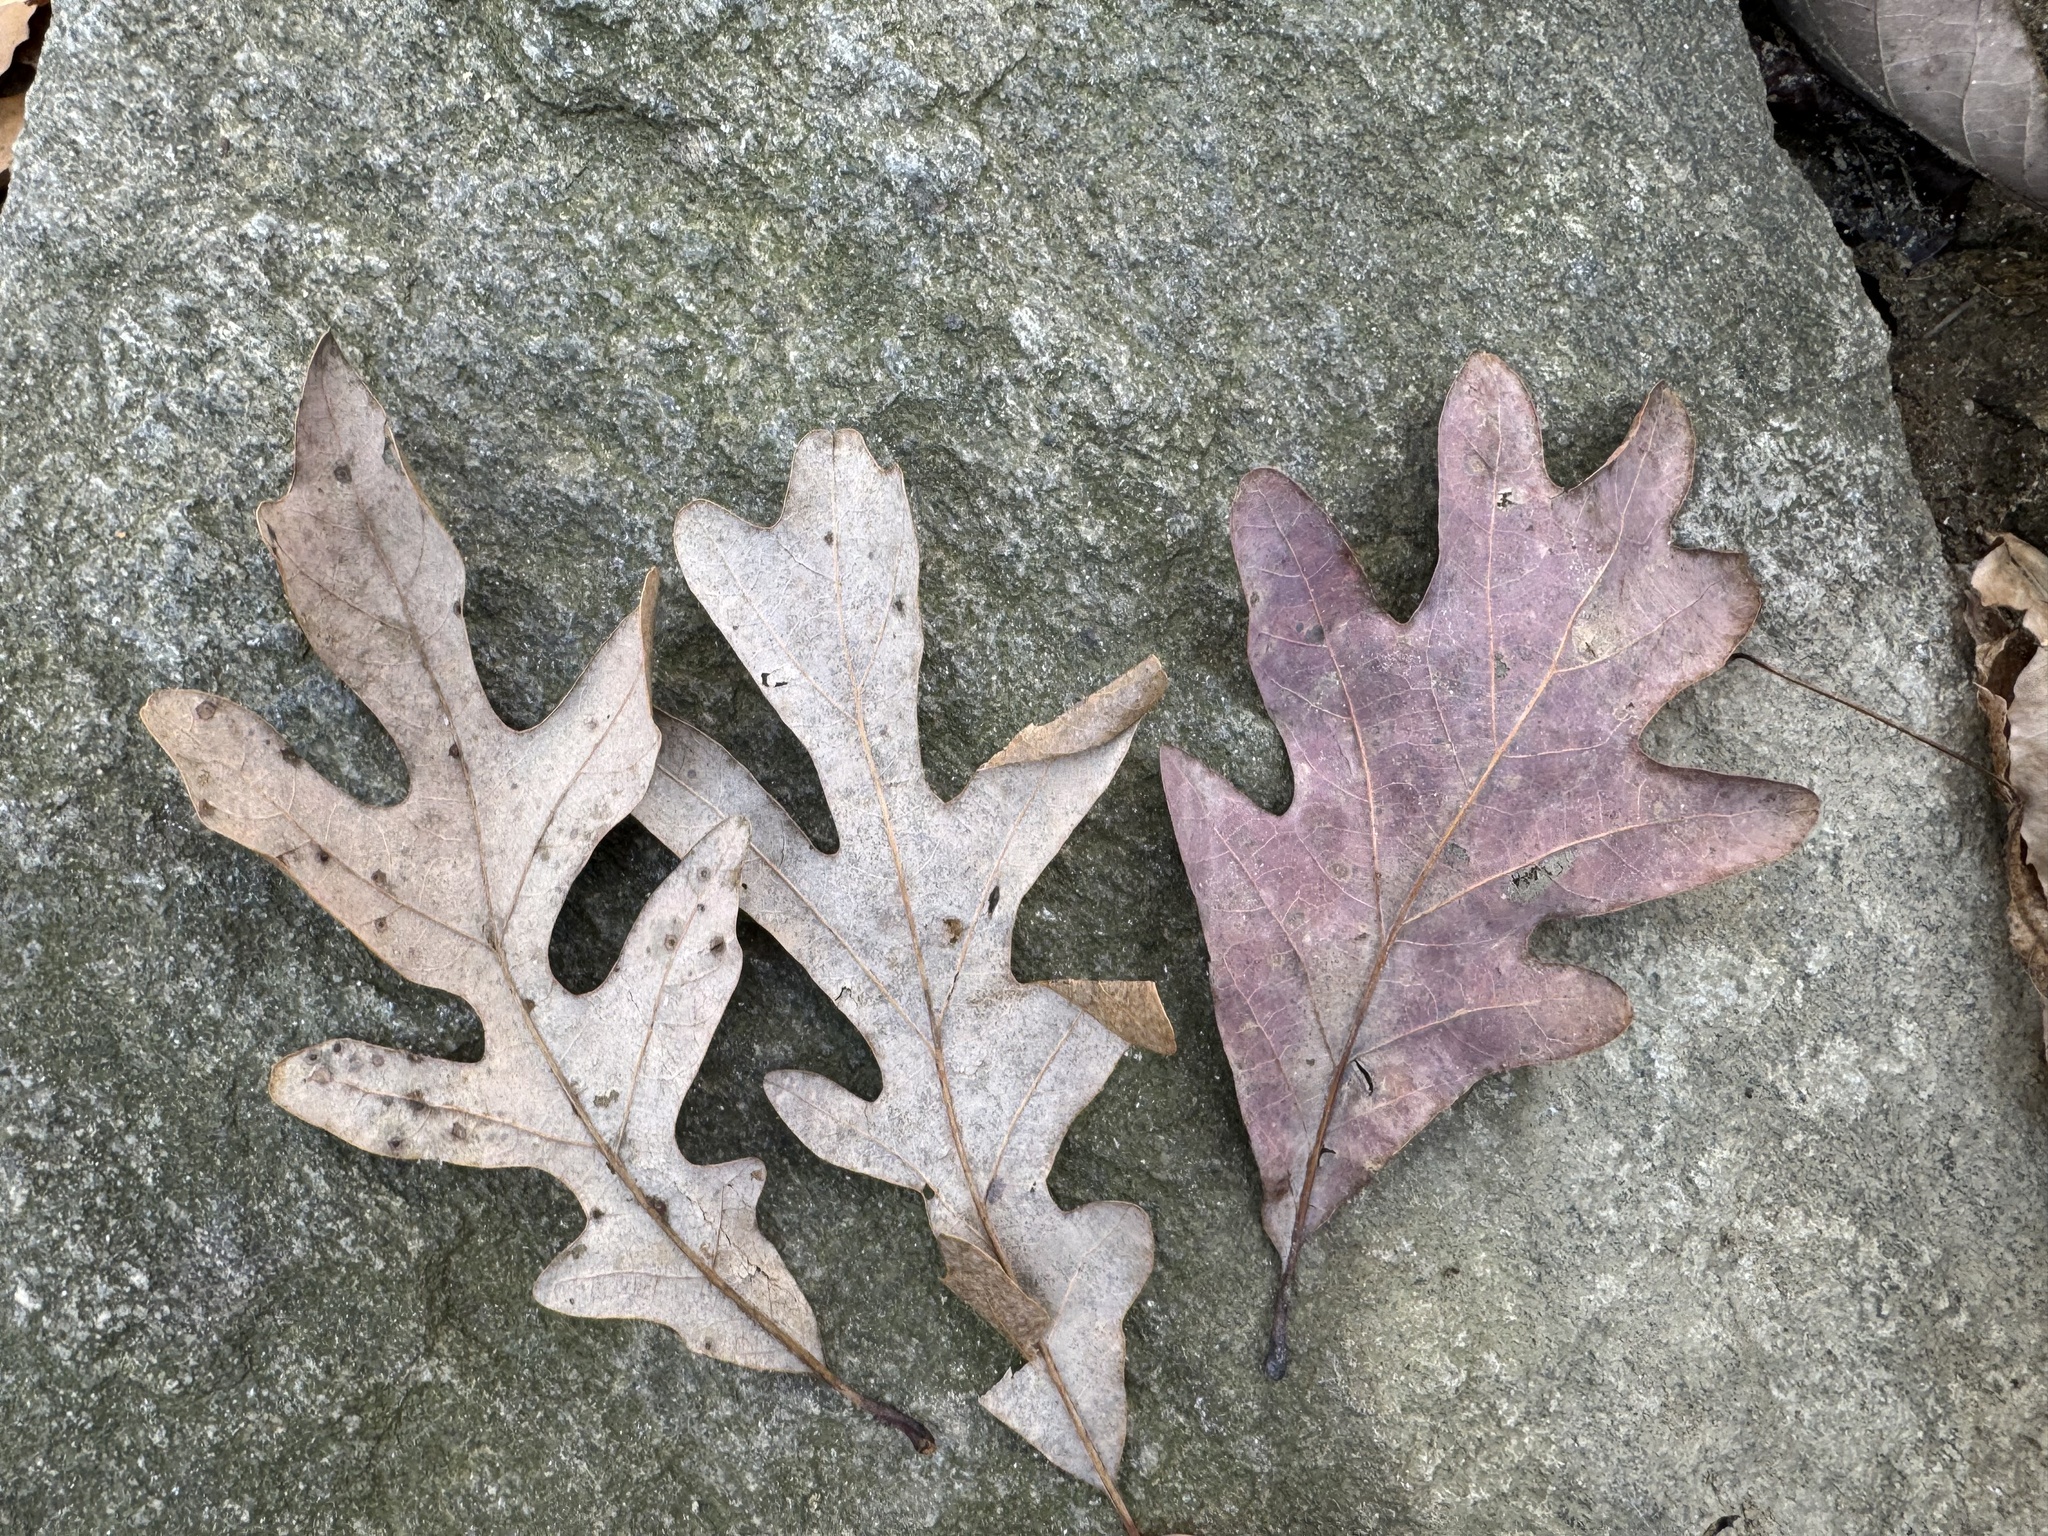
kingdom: Plantae
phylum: Tracheophyta
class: Magnoliopsida
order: Fagales
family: Fagaceae
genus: Quercus
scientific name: Quercus alba
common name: White oak
